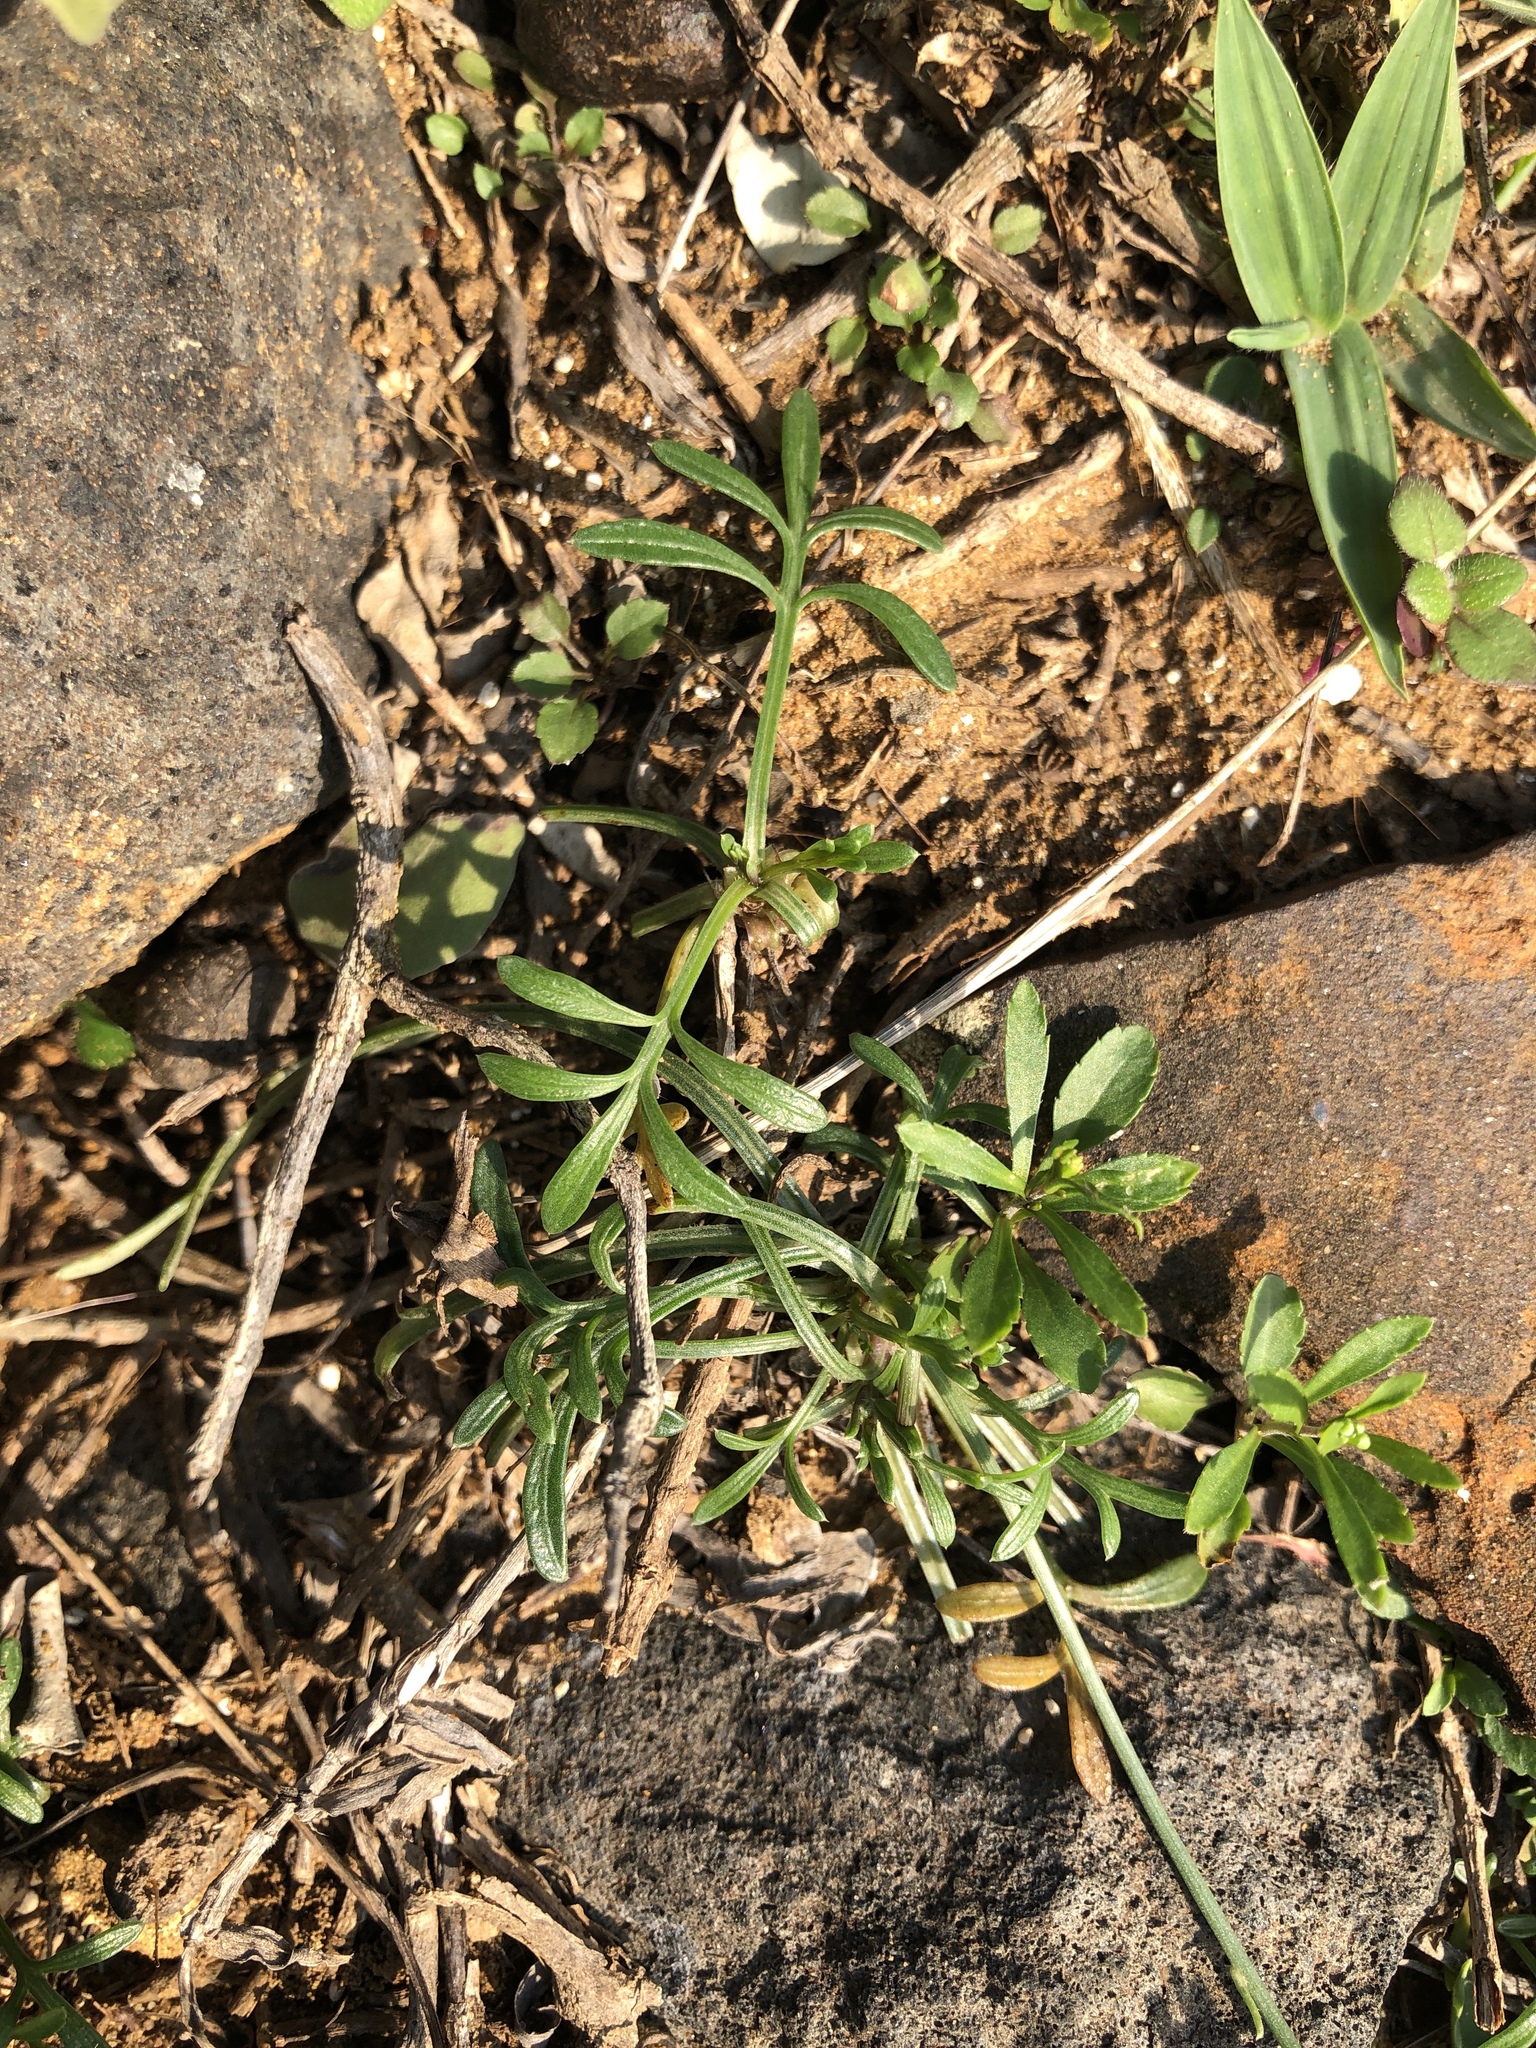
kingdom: Plantae
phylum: Tracheophyta
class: Magnoliopsida
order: Asterales
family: Asteraceae
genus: Glossocardia
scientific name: Glossocardia bidens
